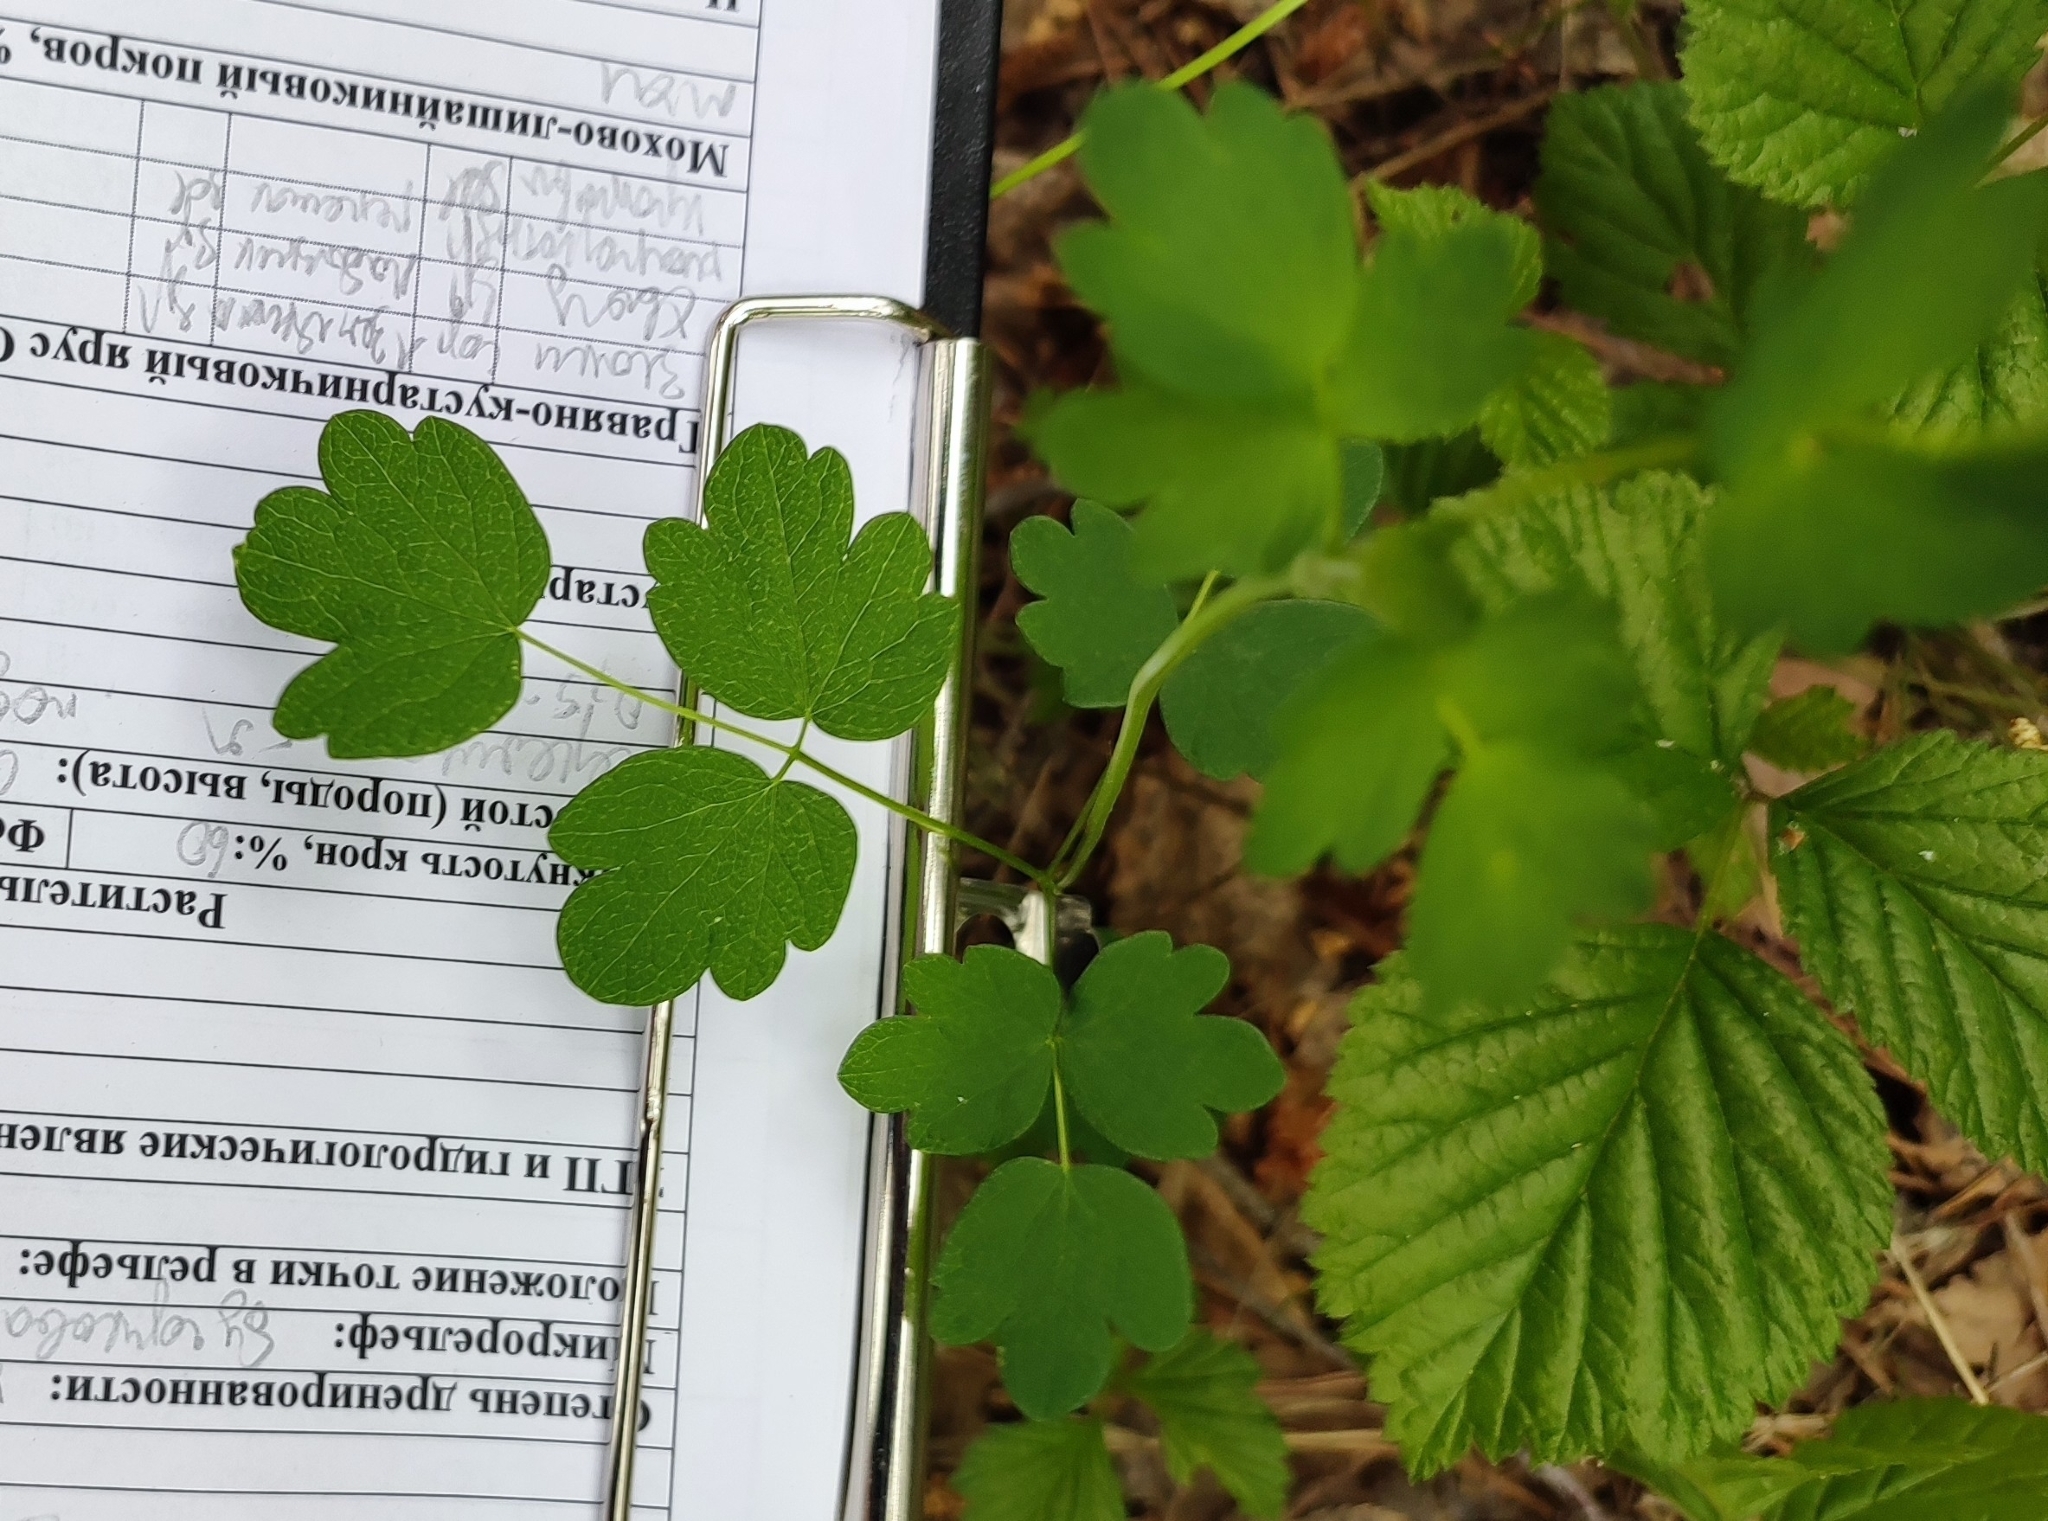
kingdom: Plantae
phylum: Tracheophyta
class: Magnoliopsida
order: Ranunculales
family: Ranunculaceae
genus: Thalictrum
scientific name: Thalictrum minus
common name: Lesser meadow-rue
